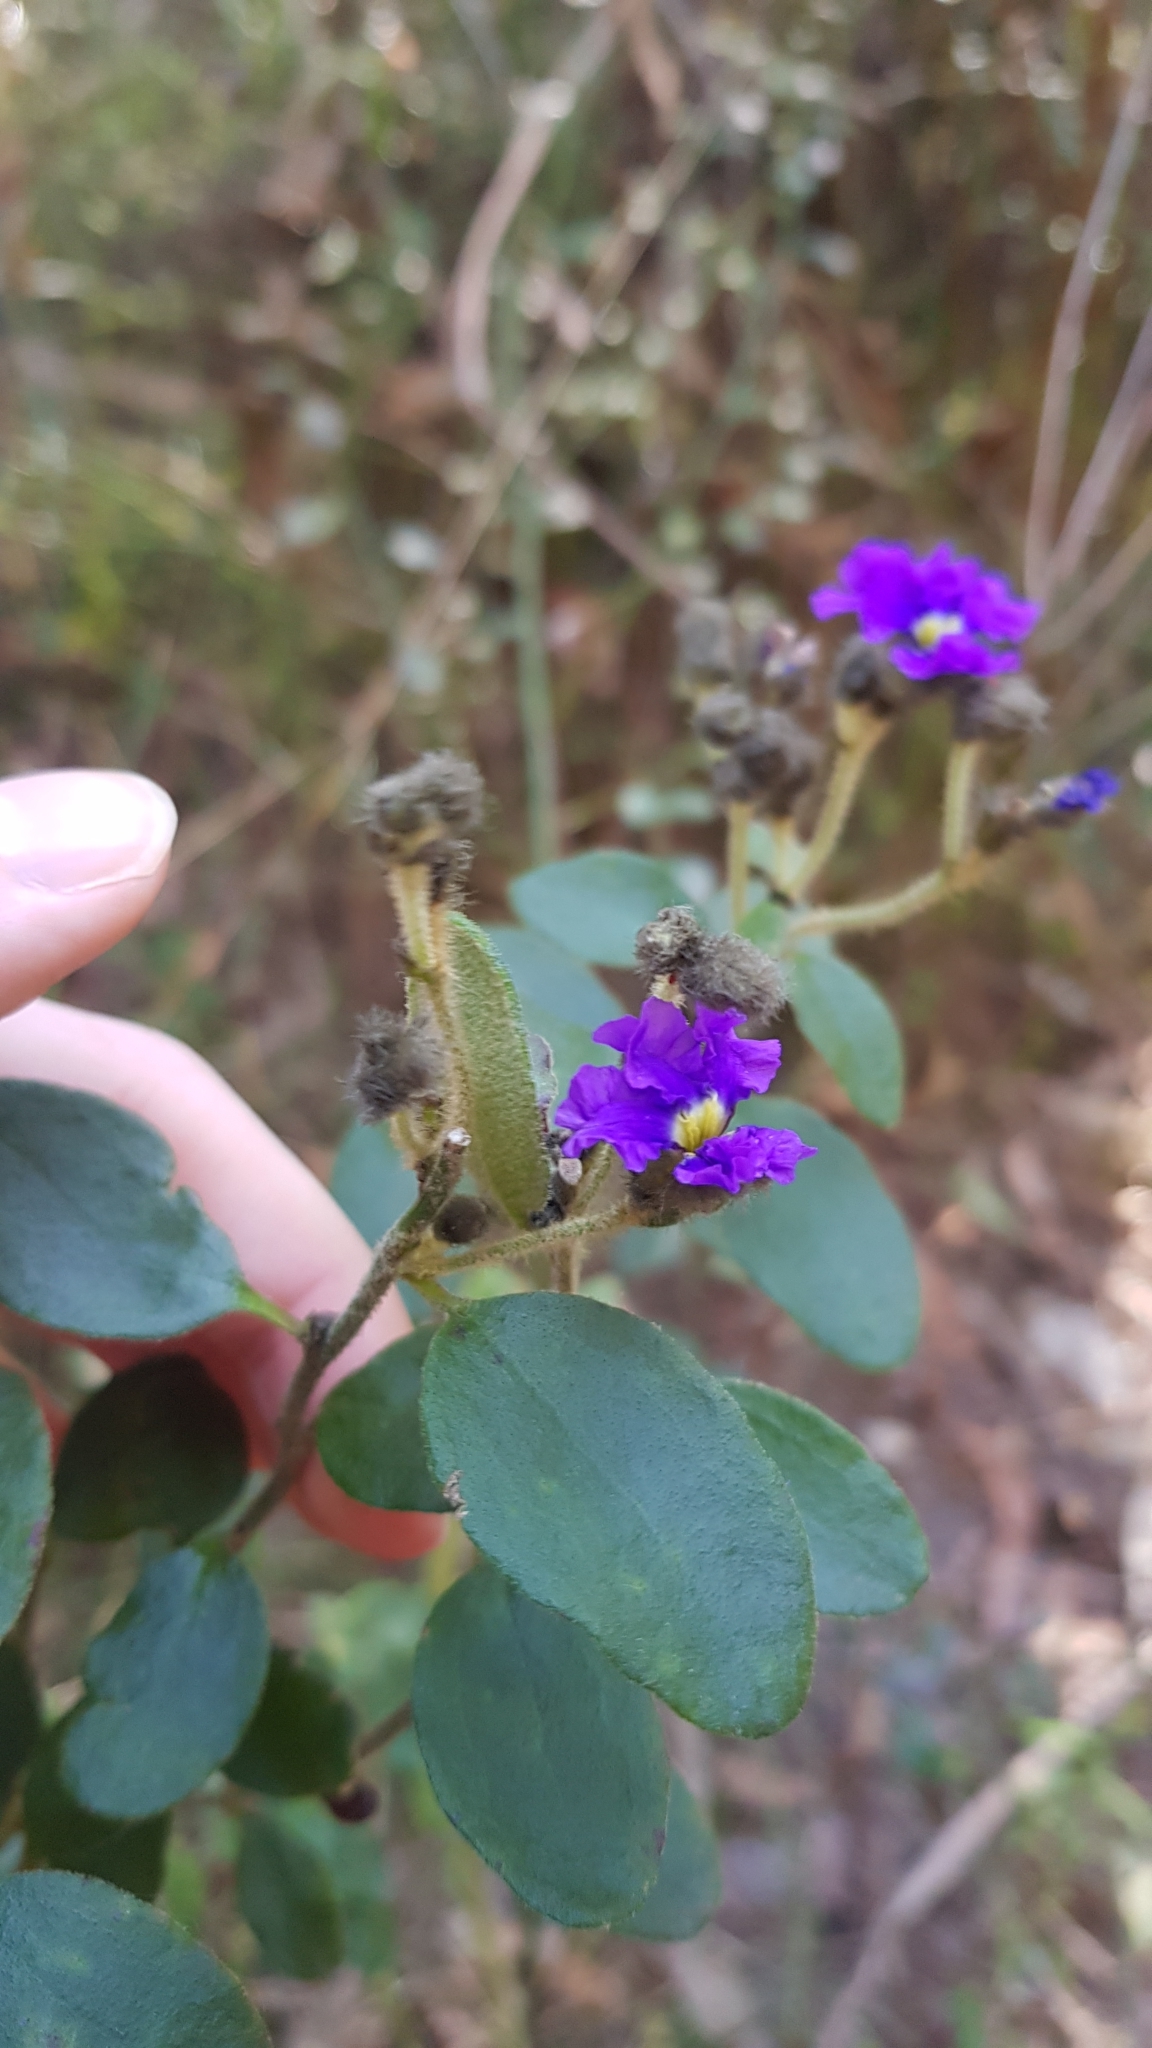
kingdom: Plantae
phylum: Tracheophyta
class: Magnoliopsida
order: Asterales
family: Goodeniaceae
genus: Dampiera
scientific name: Dampiera purpurea
